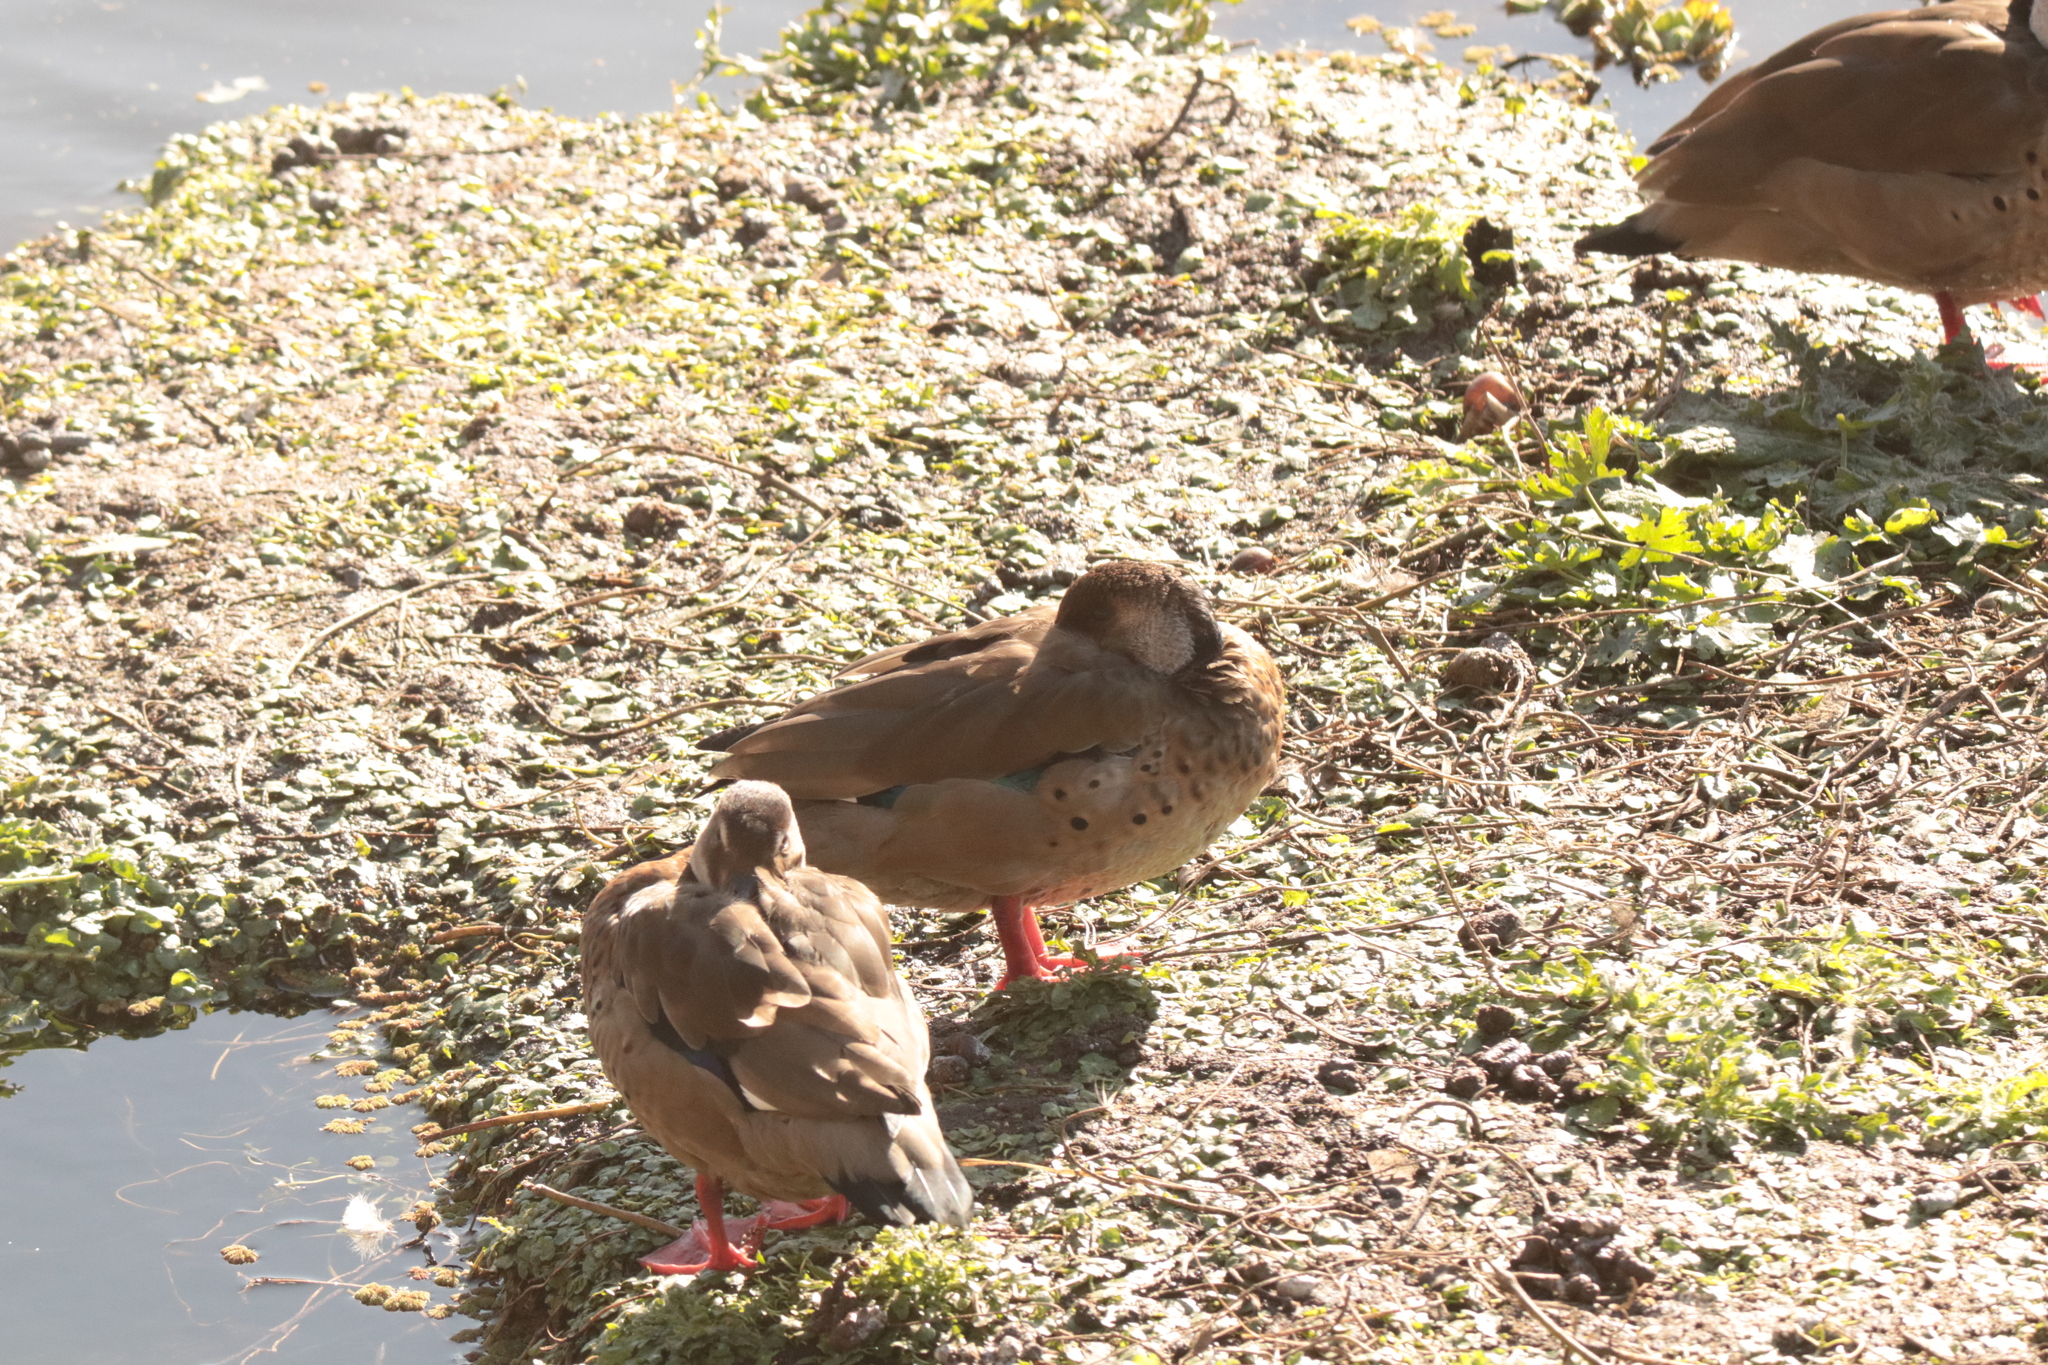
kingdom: Animalia
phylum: Chordata
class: Aves
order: Anseriformes
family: Anatidae
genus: Amazonetta
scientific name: Amazonetta brasiliensis
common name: Brazilian teal
